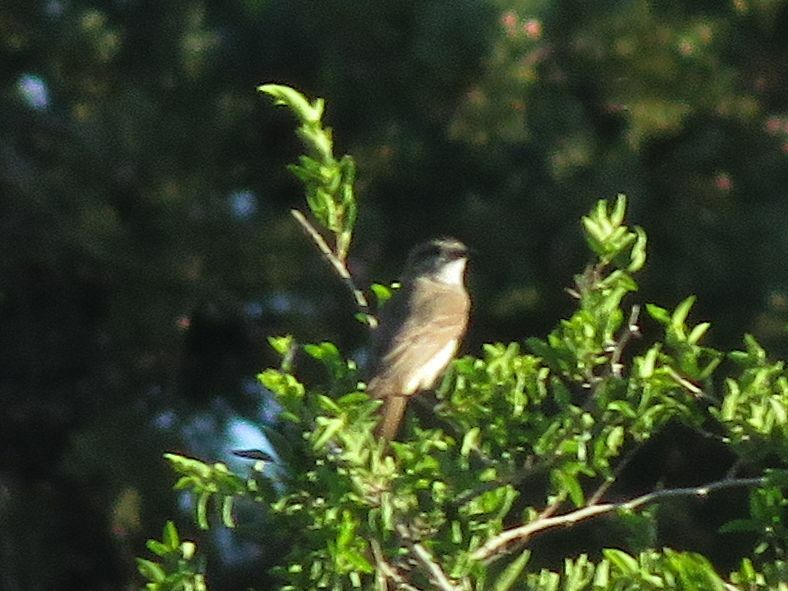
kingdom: Animalia
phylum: Chordata
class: Aves
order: Passeriformes
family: Tyrannidae
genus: Empidonomus
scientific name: Empidonomus aurantioatrocristatus
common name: Crowned slaty flycatcher
